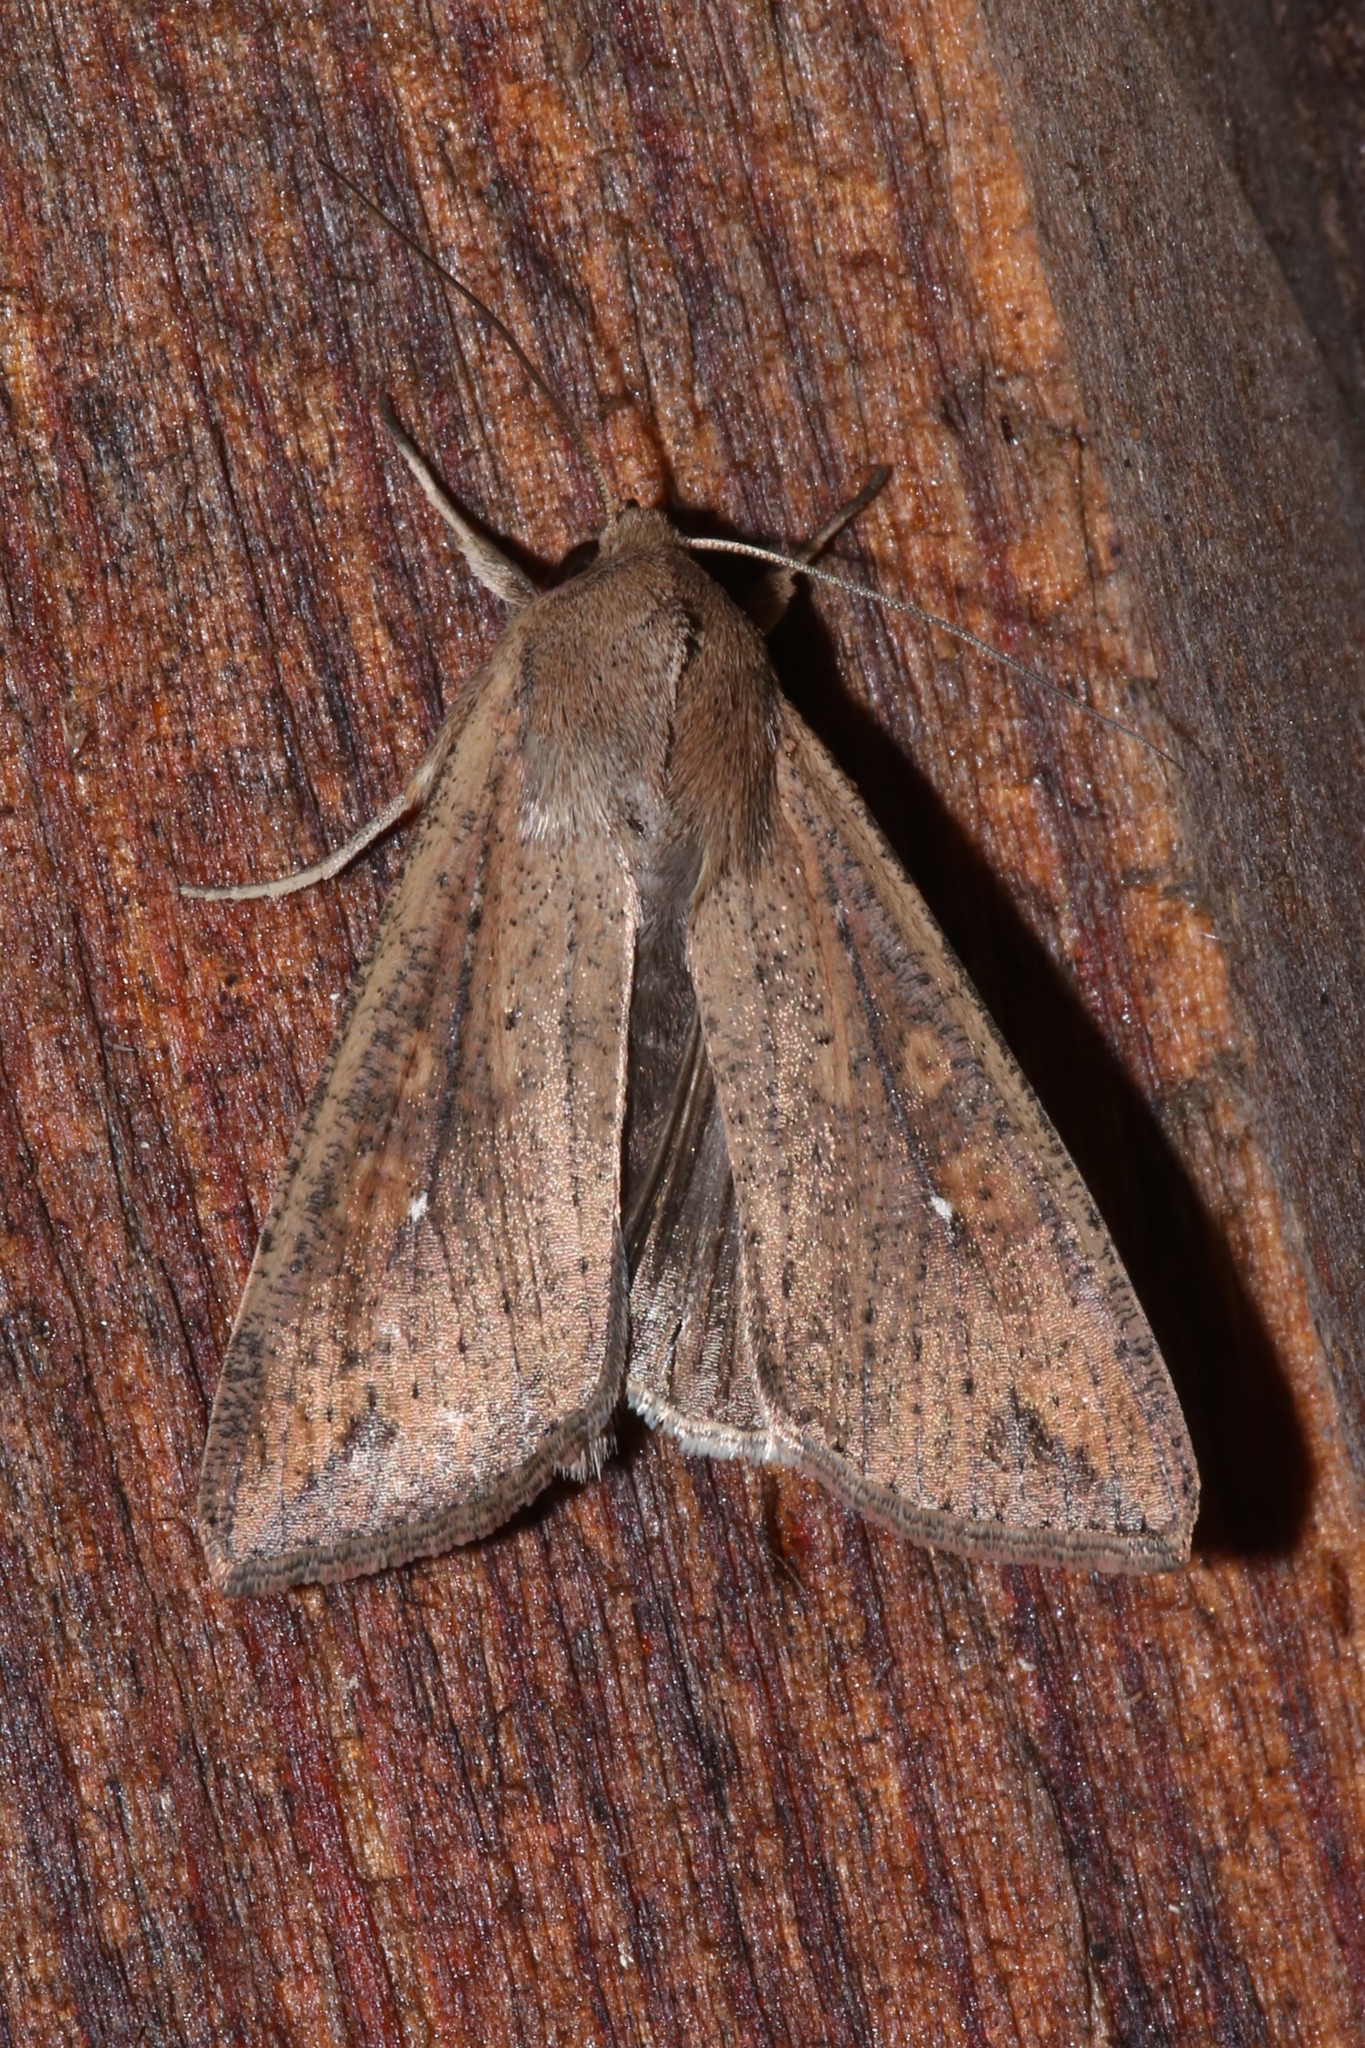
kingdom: Animalia
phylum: Arthropoda
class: Insecta
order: Lepidoptera
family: Noctuidae
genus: Mythimna
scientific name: Mythimna unipuncta
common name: White-speck
